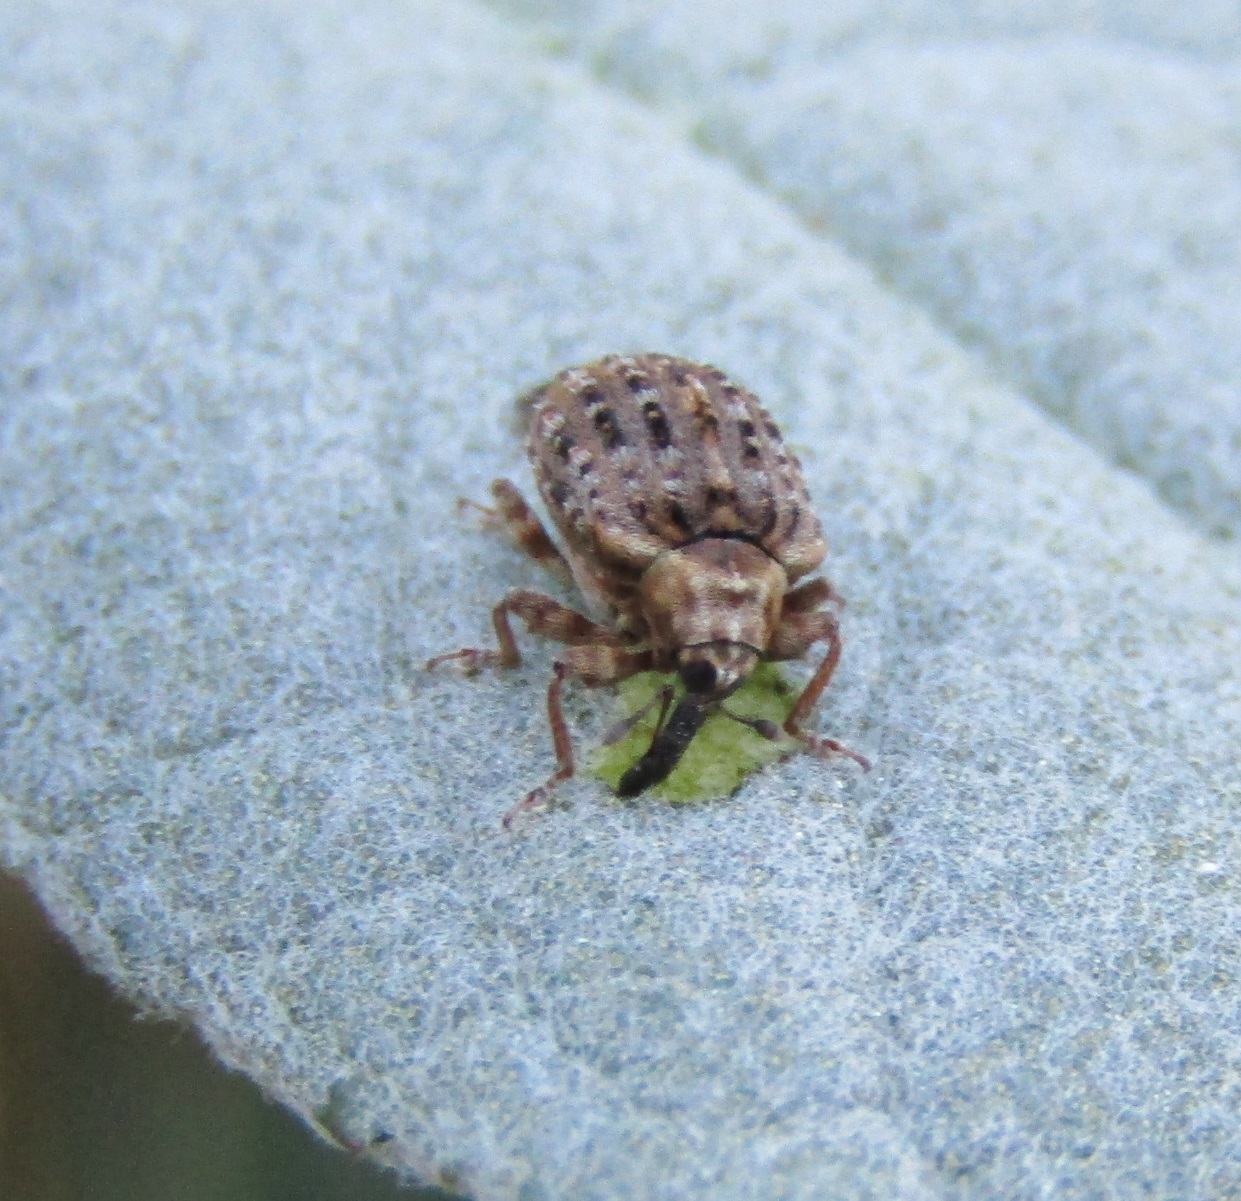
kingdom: Animalia
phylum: Arthropoda
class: Insecta
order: Coleoptera
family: Curculionidae
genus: Cleopus
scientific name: Cleopus japonicus
